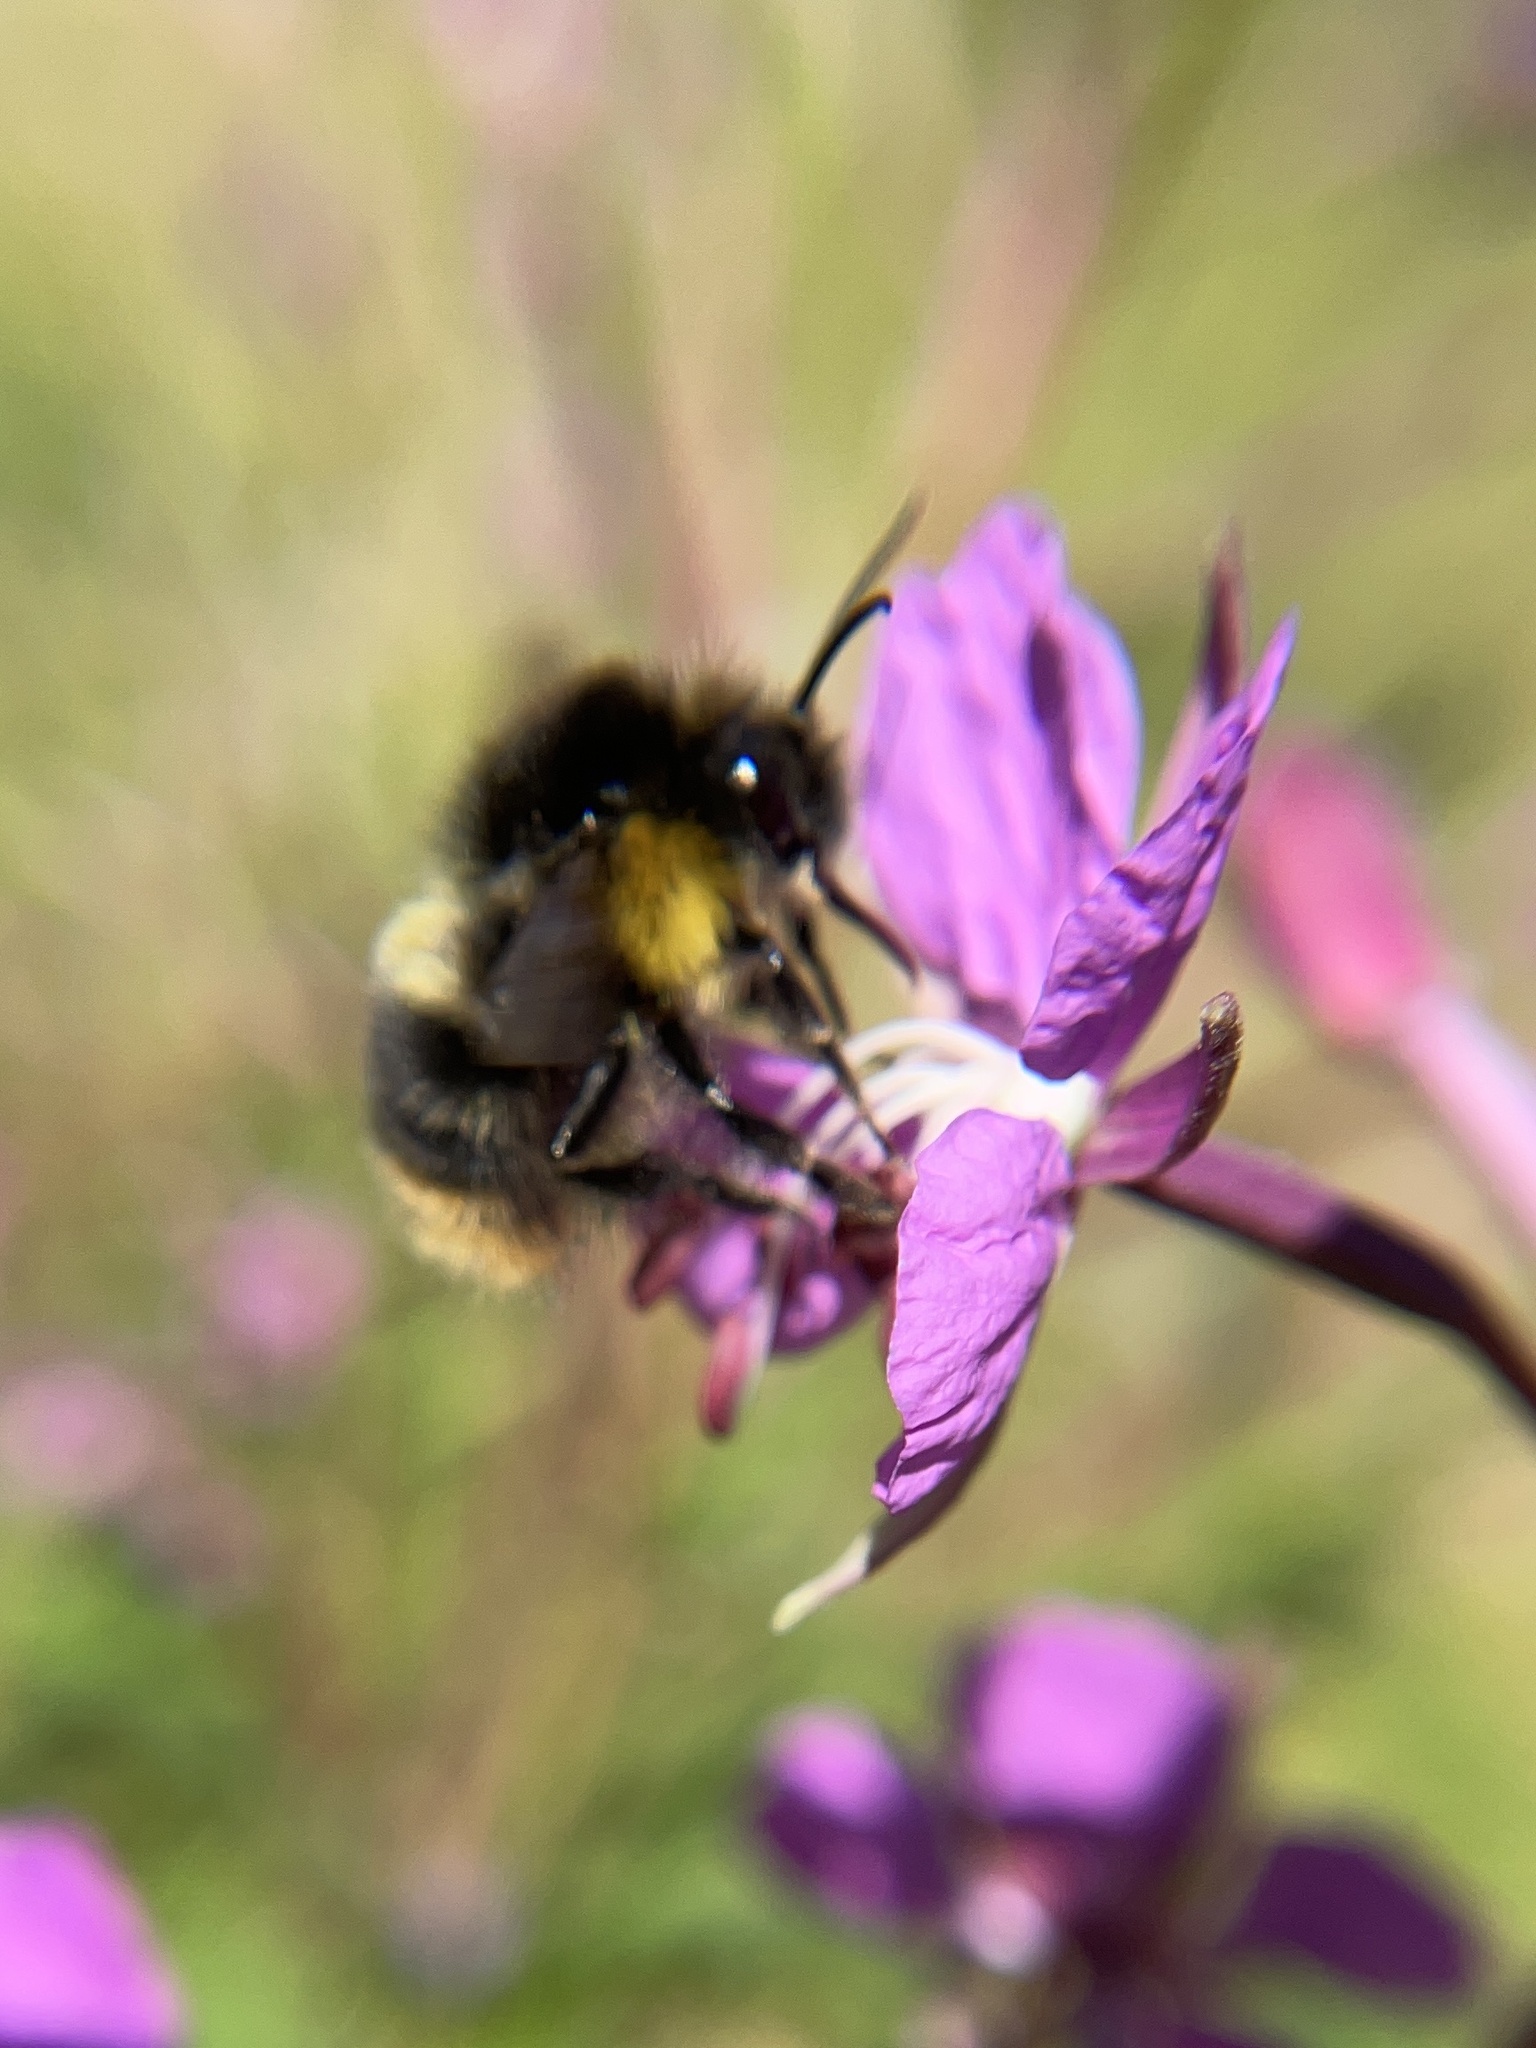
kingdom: Animalia
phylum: Arthropoda
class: Insecta
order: Hymenoptera
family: Apidae
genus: Bombus
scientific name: Bombus soroeensis
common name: Broken-belted humble-bee
